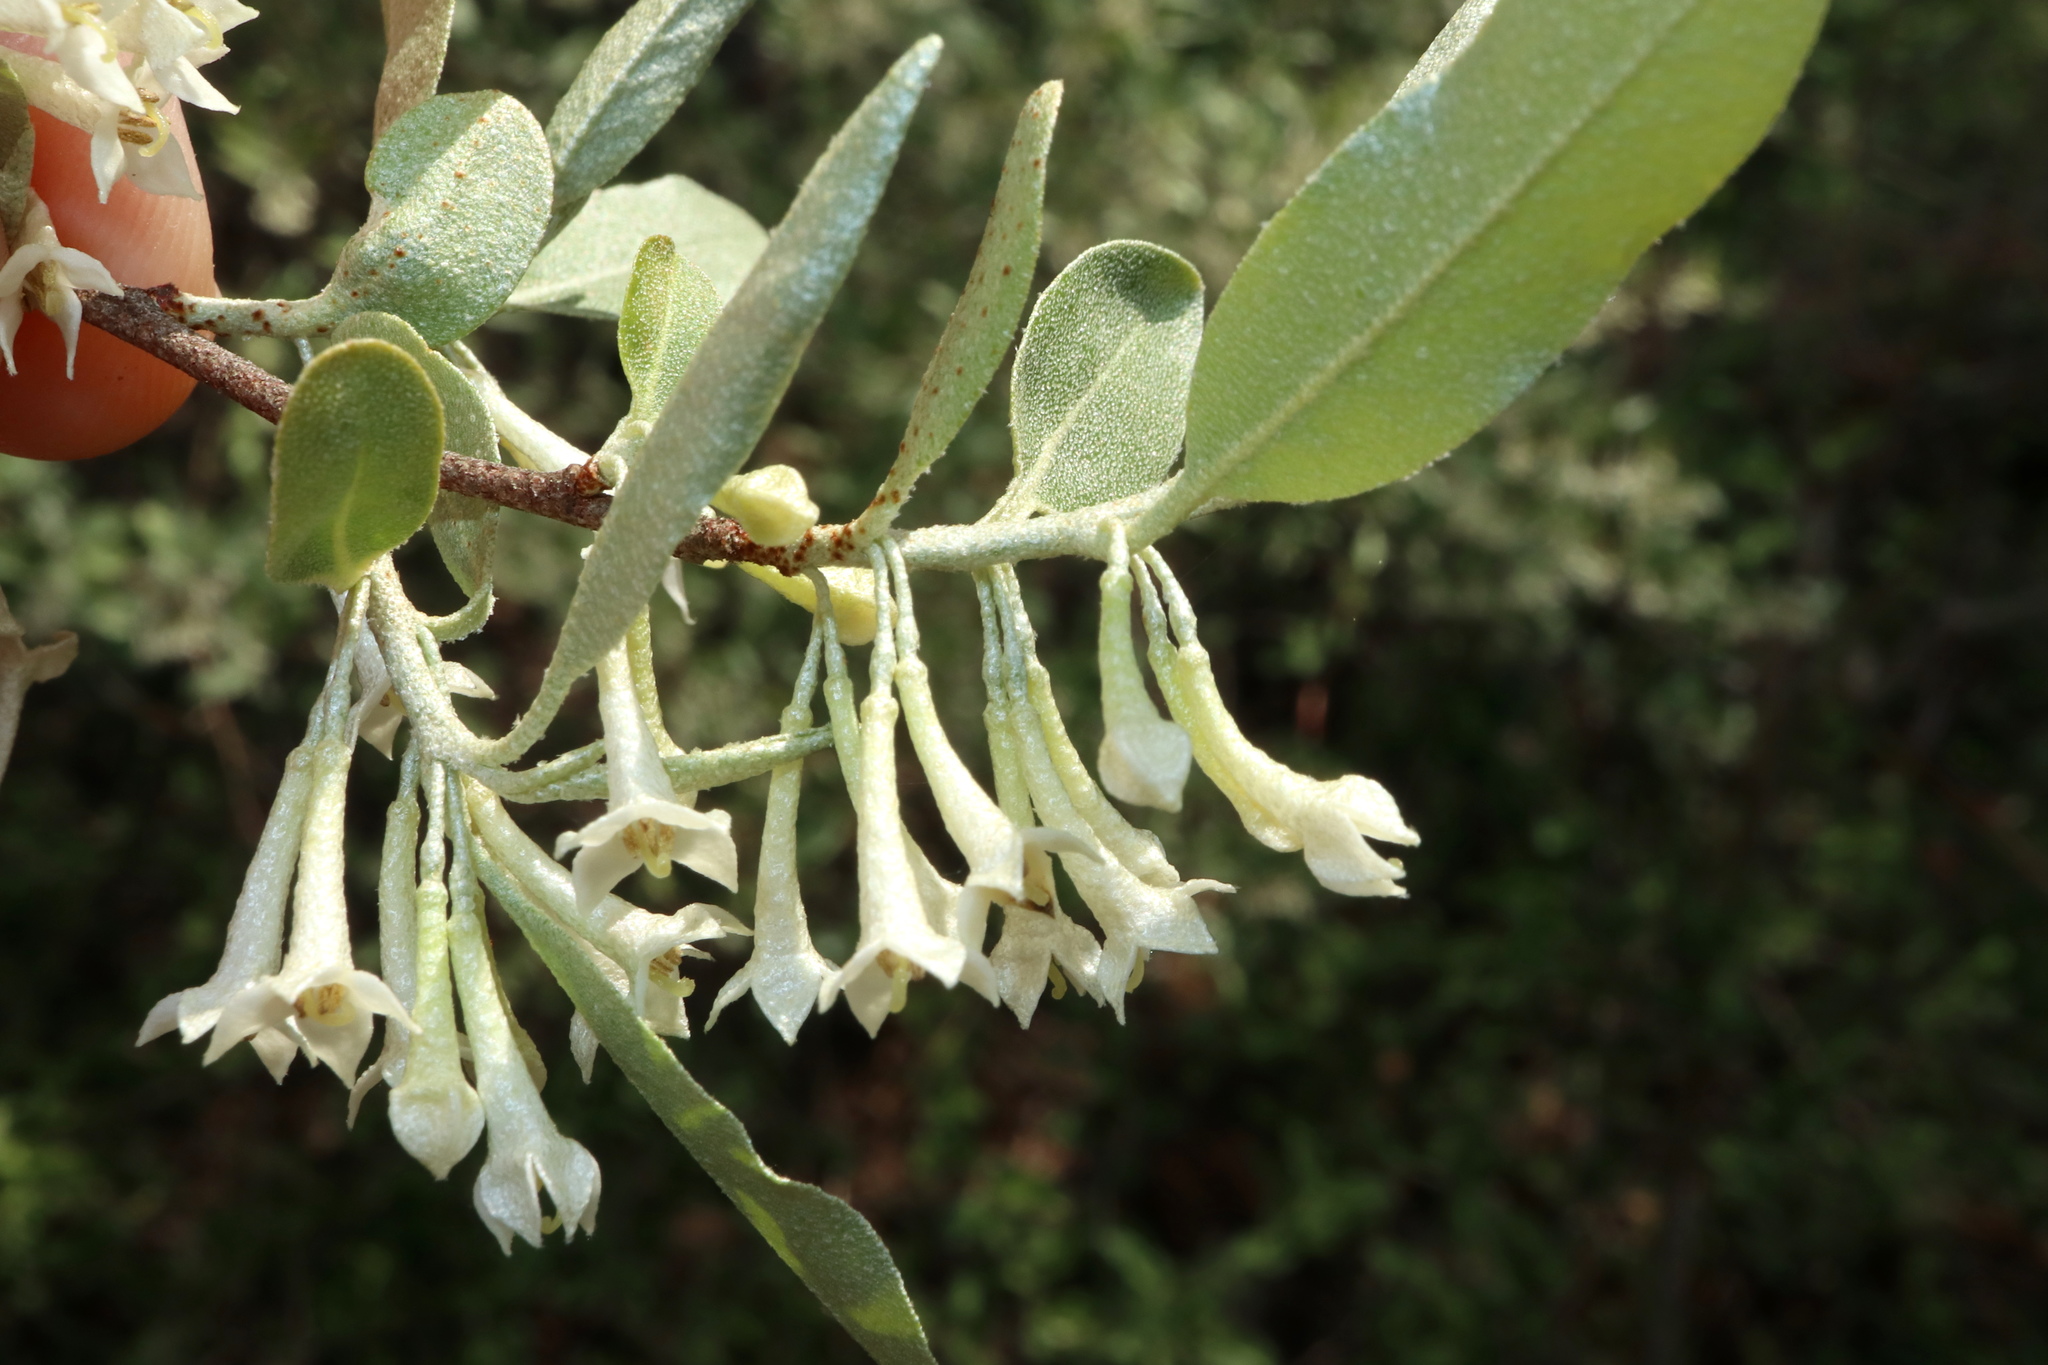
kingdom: Plantae
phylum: Tracheophyta
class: Magnoliopsida
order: Rosales
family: Elaeagnaceae
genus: Elaeagnus
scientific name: Elaeagnus umbellata
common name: Autumn olive
